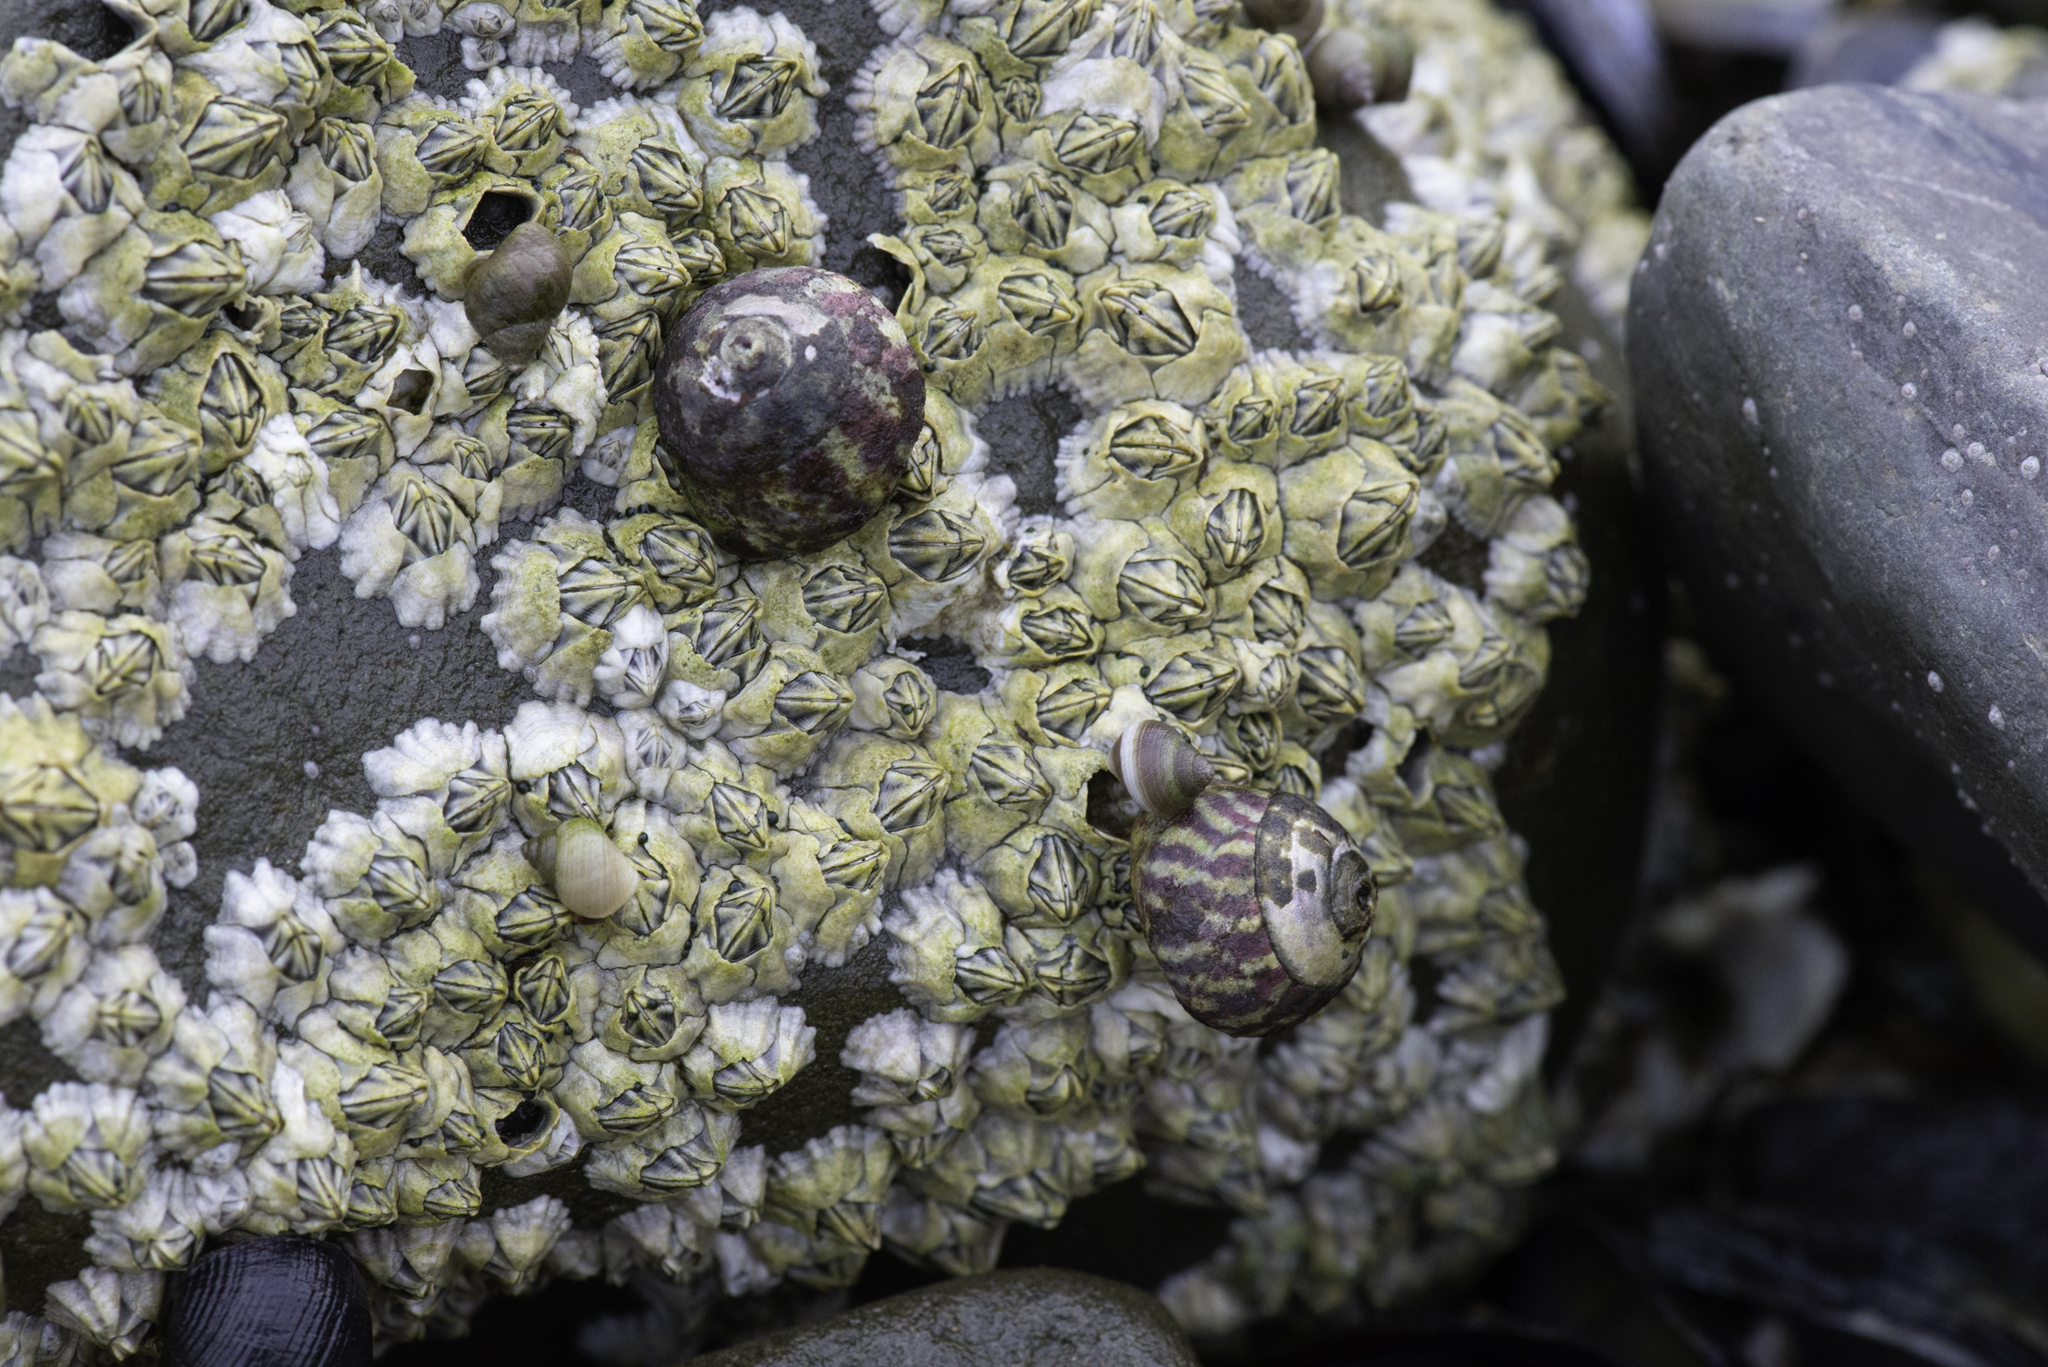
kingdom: Animalia
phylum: Mollusca
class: Gastropoda
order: Trochida
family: Trochidae
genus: Steromphala
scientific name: Steromphala umbilicalis
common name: Flat top shell
